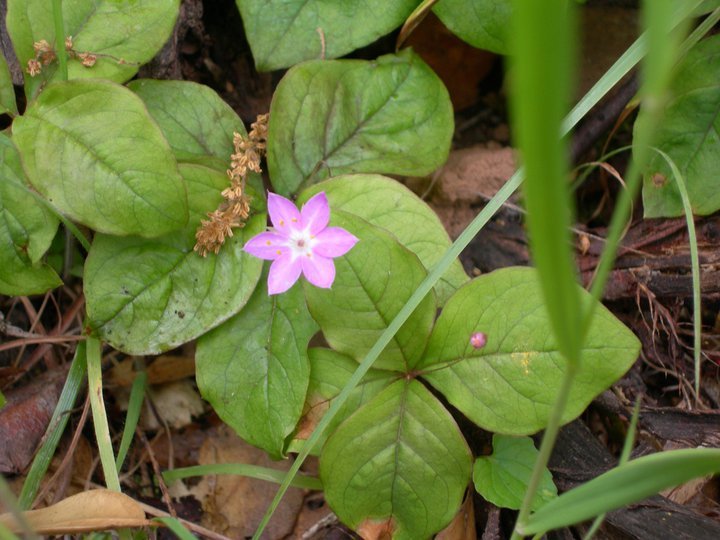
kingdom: Plantae
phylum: Tracheophyta
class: Magnoliopsida
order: Ericales
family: Primulaceae
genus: Lysimachia
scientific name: Lysimachia latifolia
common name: Pacific starflower
